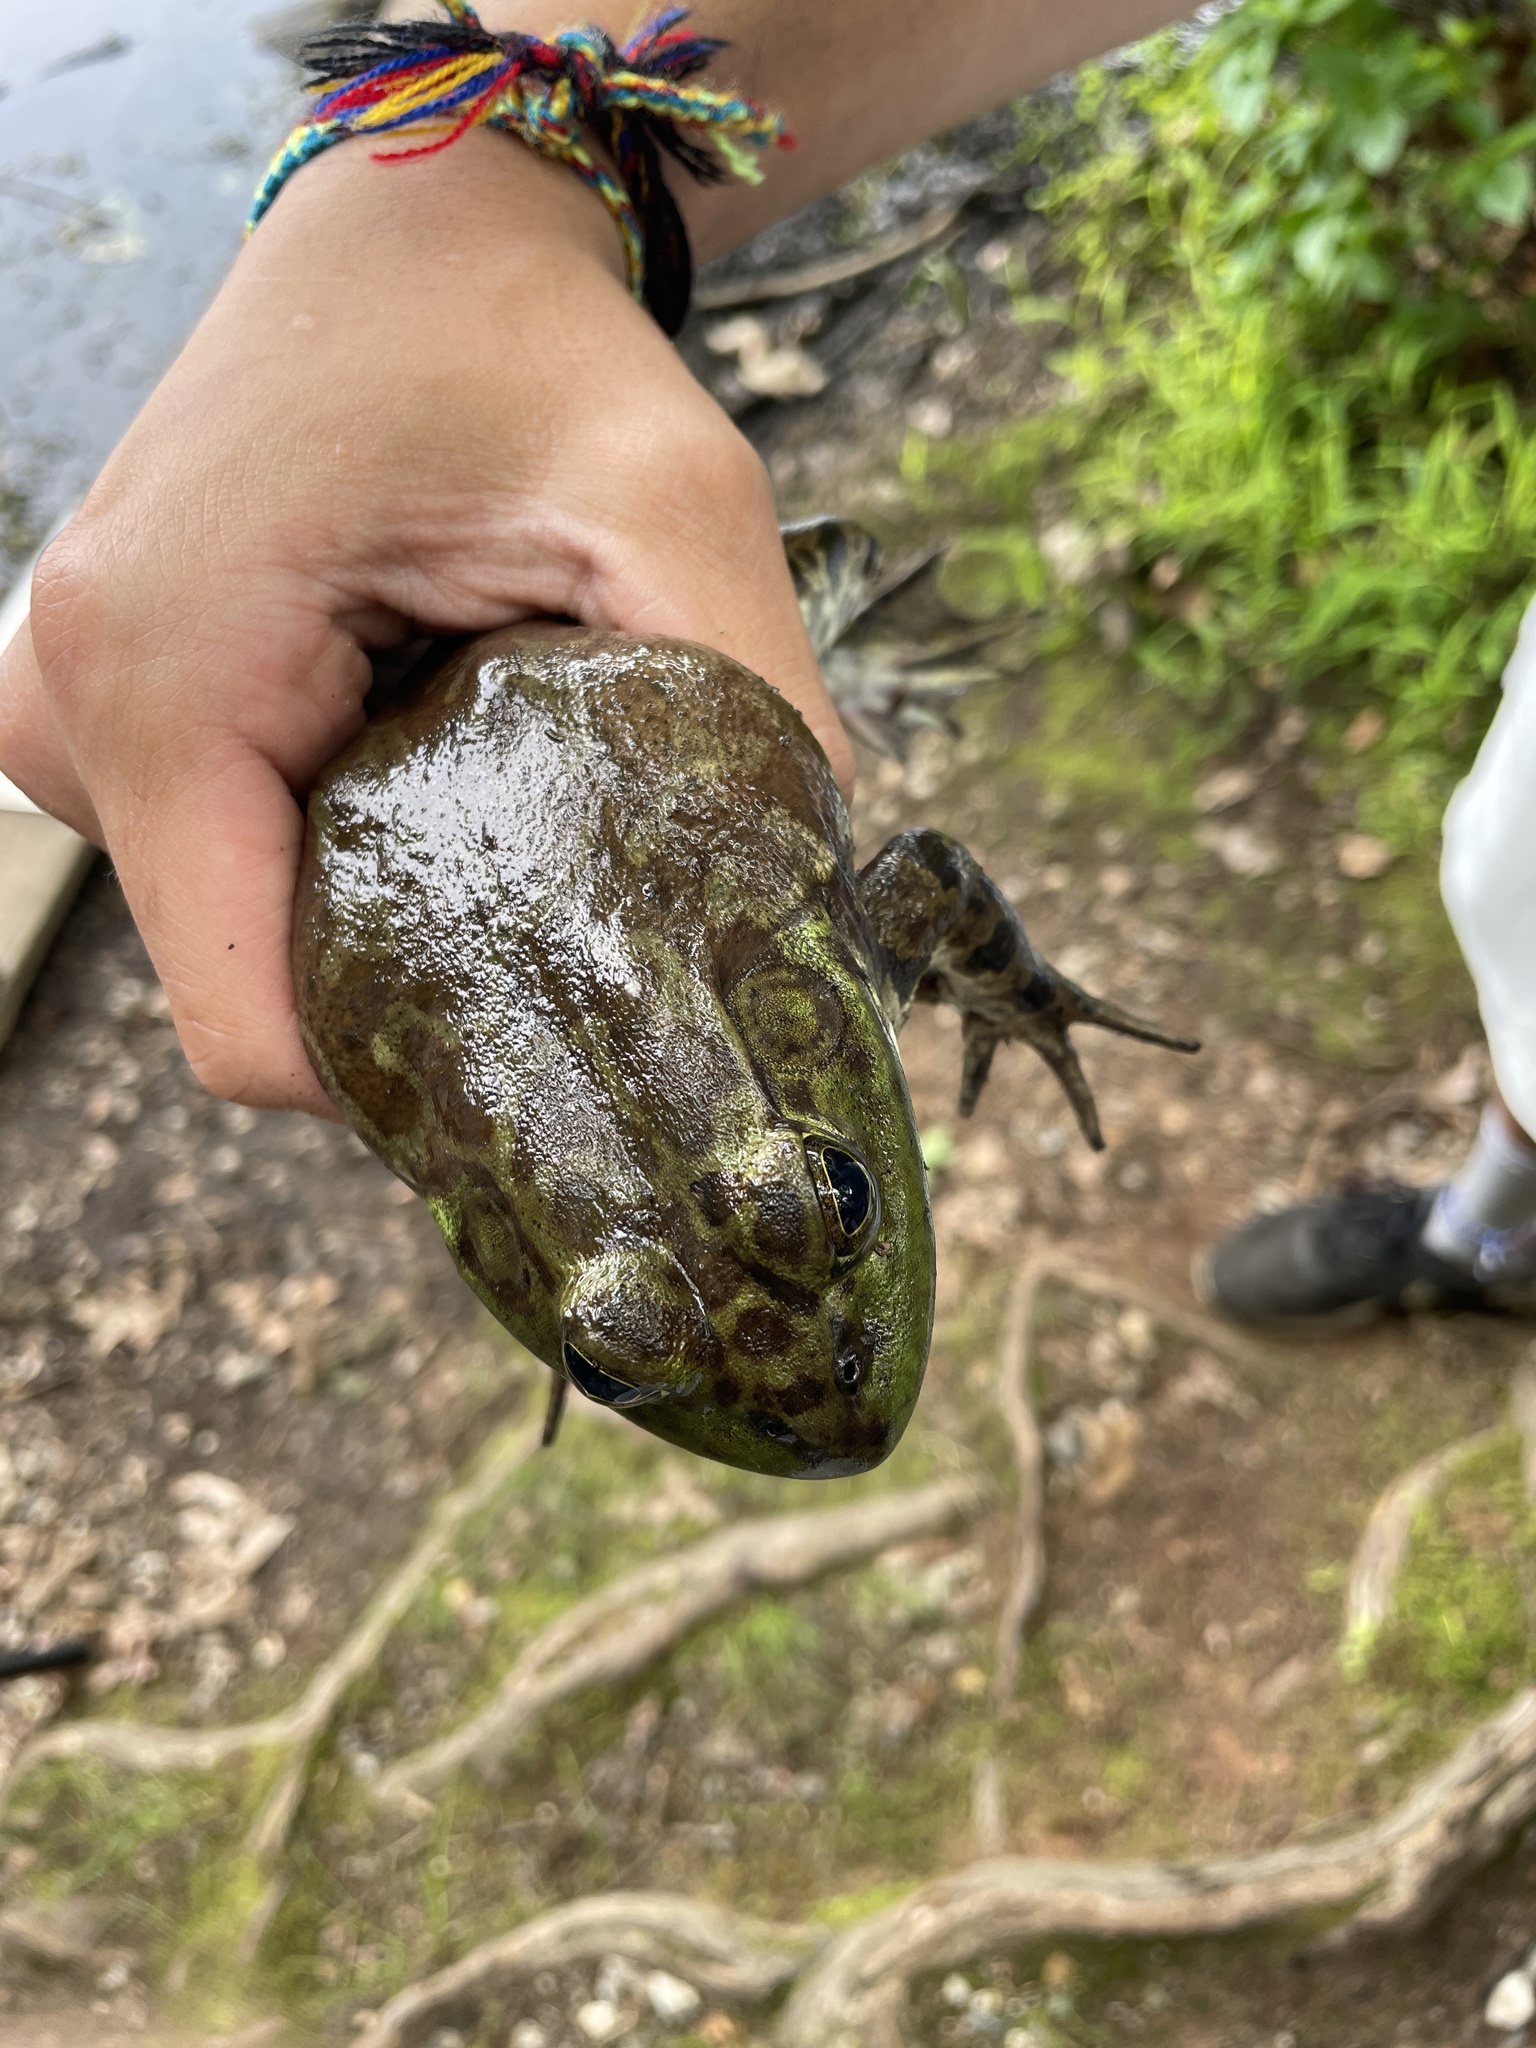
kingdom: Animalia
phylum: Chordata
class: Amphibia
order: Anura
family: Ranidae
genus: Lithobates
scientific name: Lithobates catesbeianus
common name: American bullfrog
